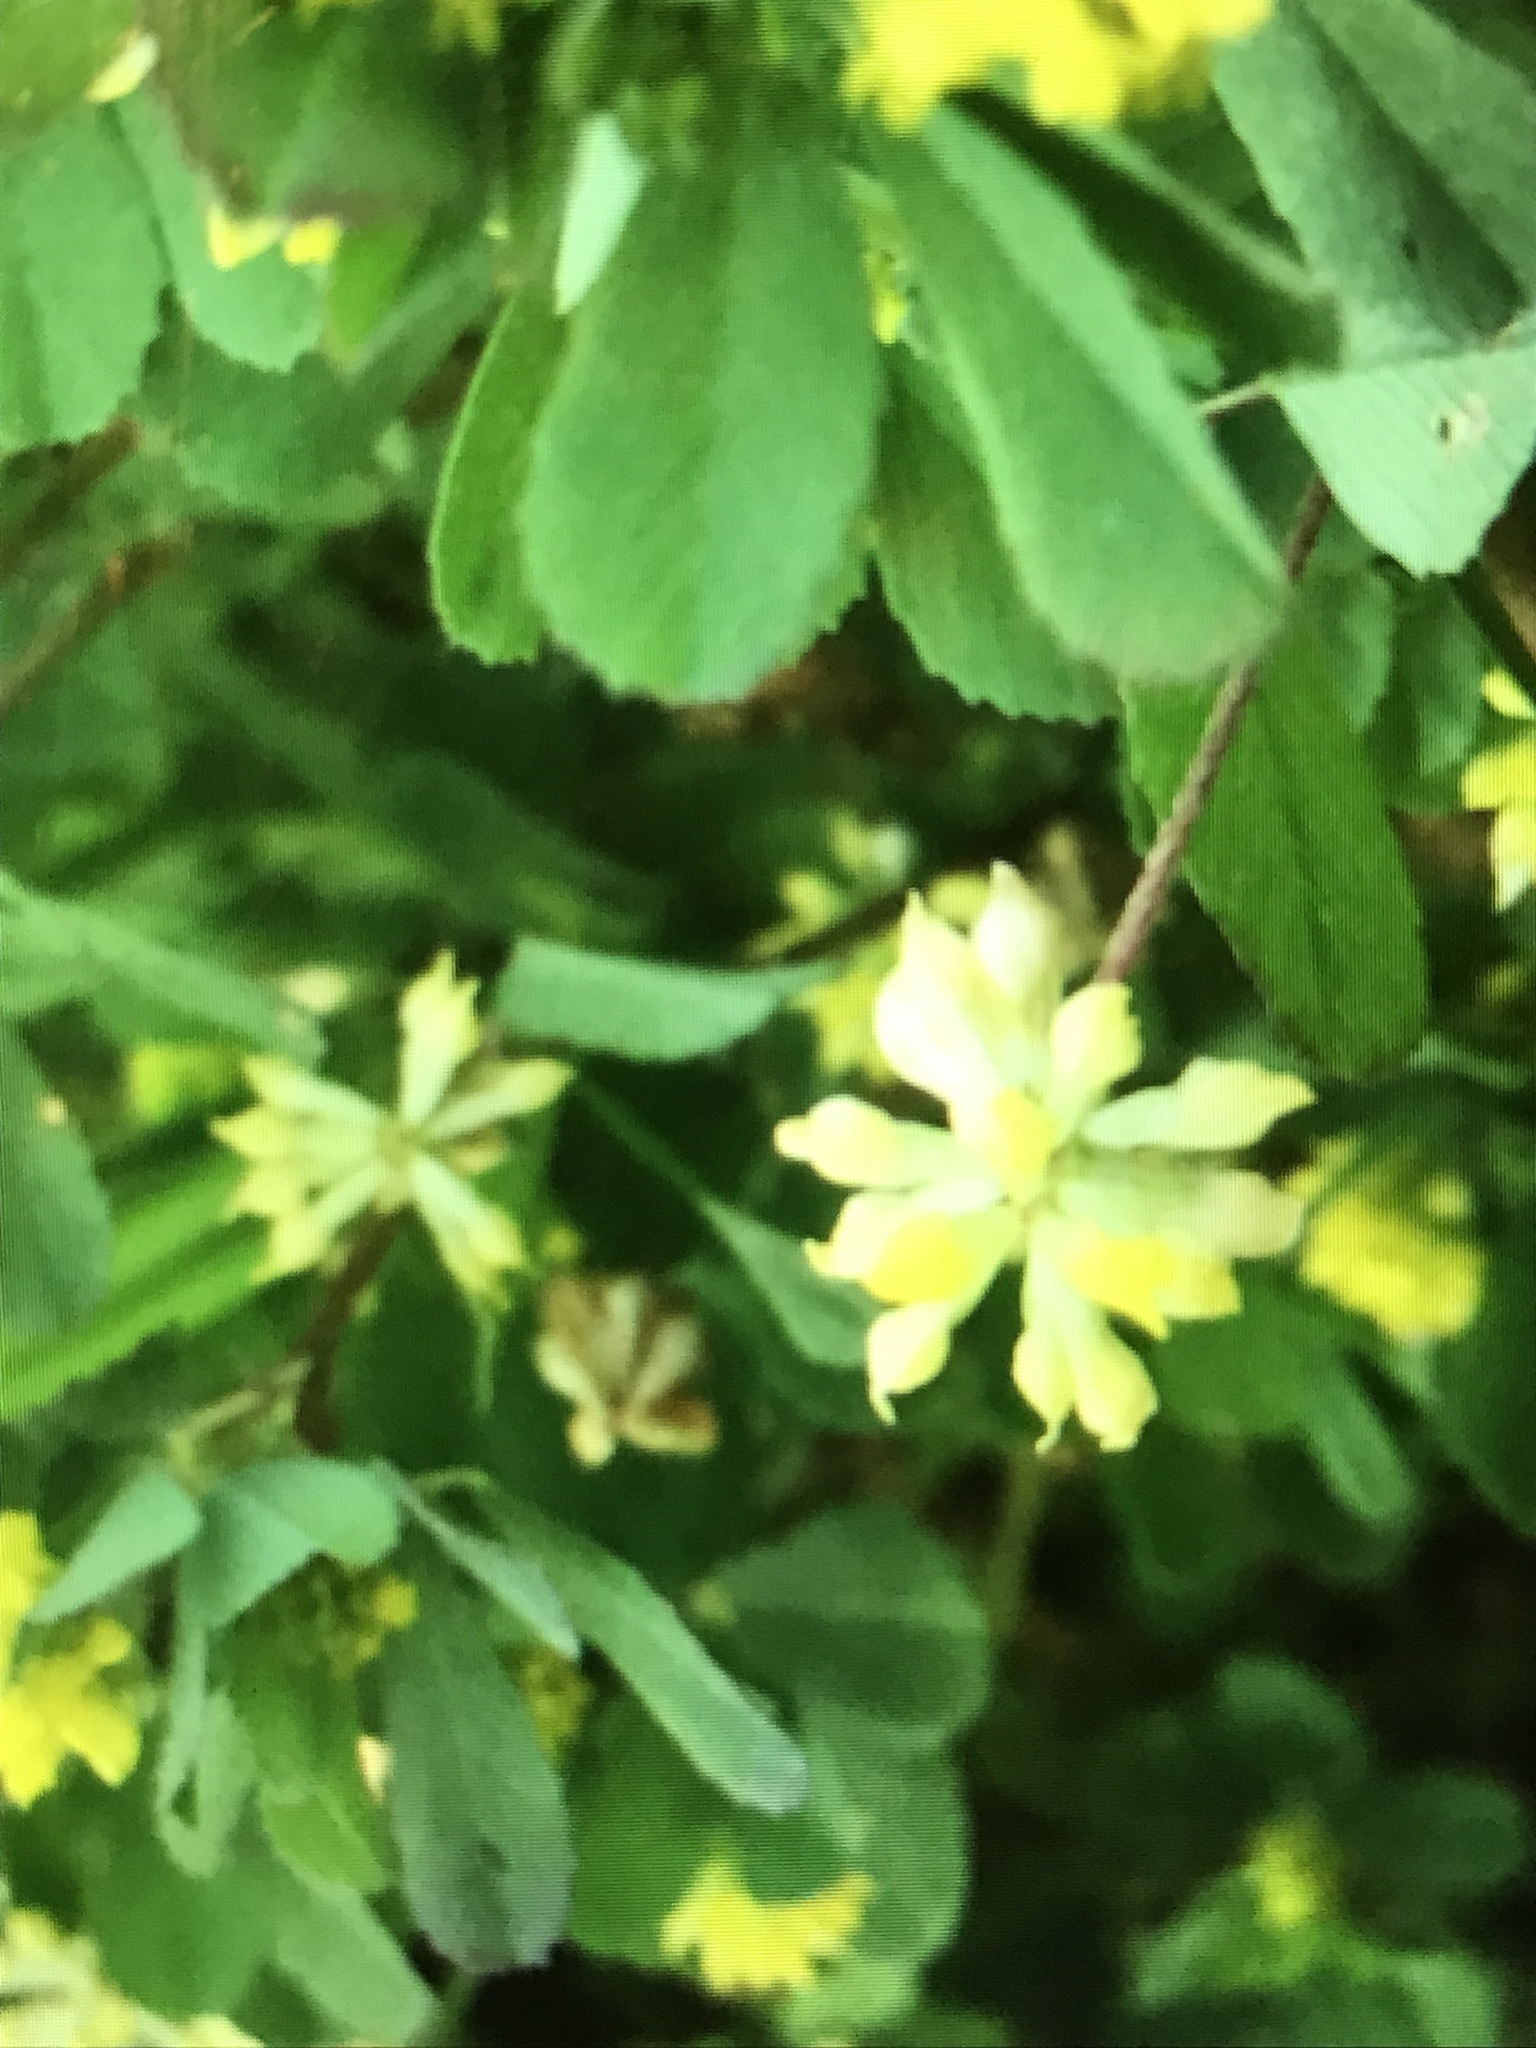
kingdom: Plantae
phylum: Tracheophyta
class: Magnoliopsida
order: Fabales
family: Fabaceae
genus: Trifolium
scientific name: Trifolium dubium
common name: Suckling clover
